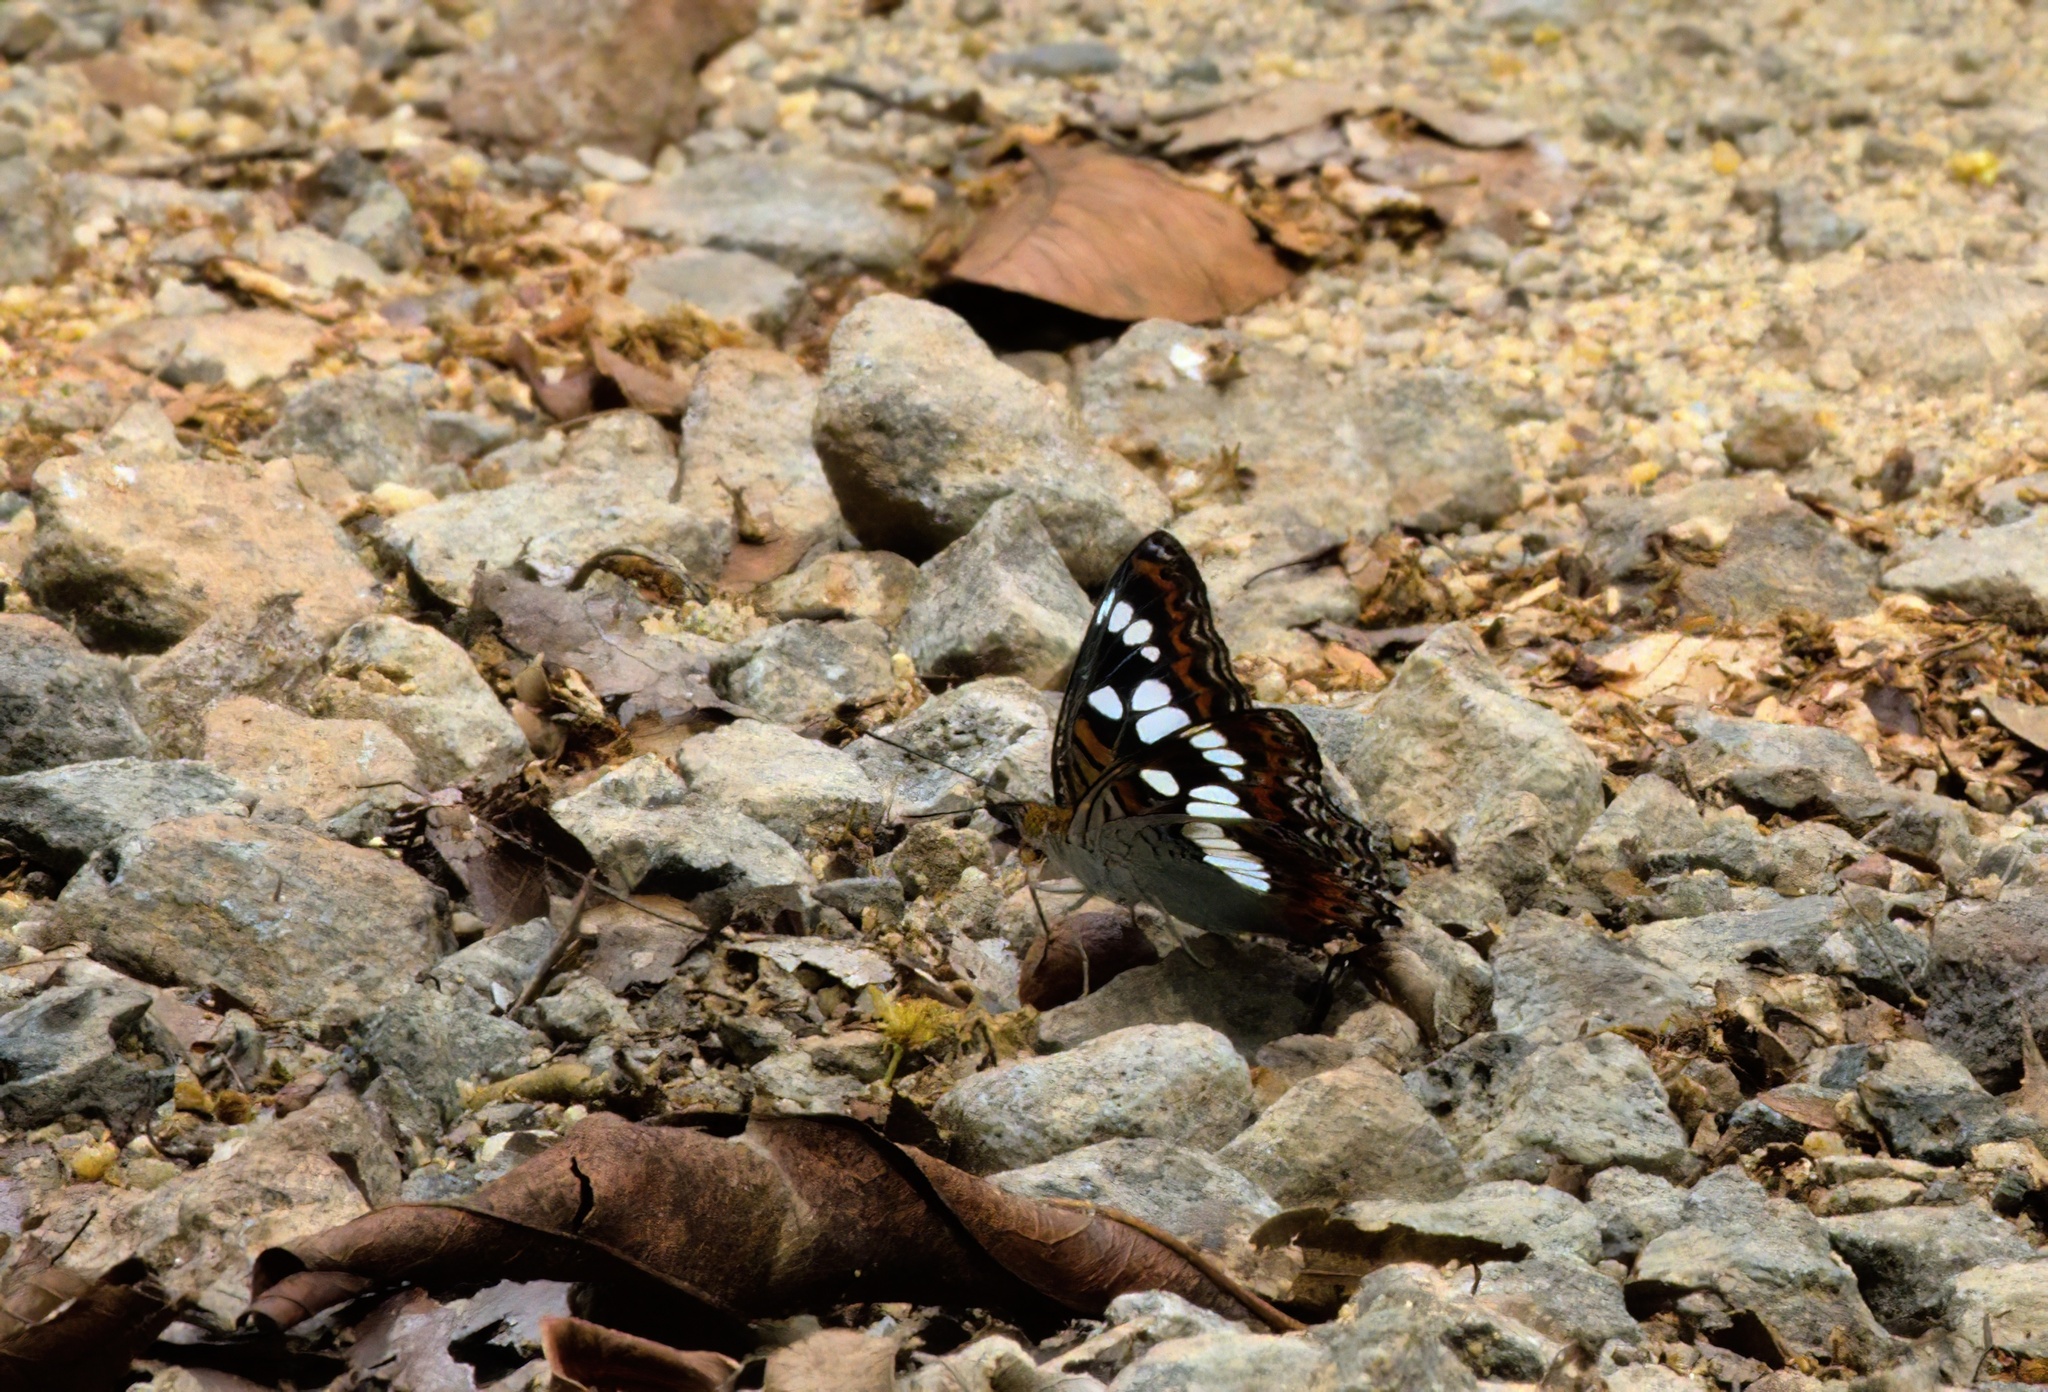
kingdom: Animalia
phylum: Arthropoda
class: Insecta
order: Lepidoptera
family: Nymphalidae
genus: Limenitis
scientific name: Limenitis Moduza procris
